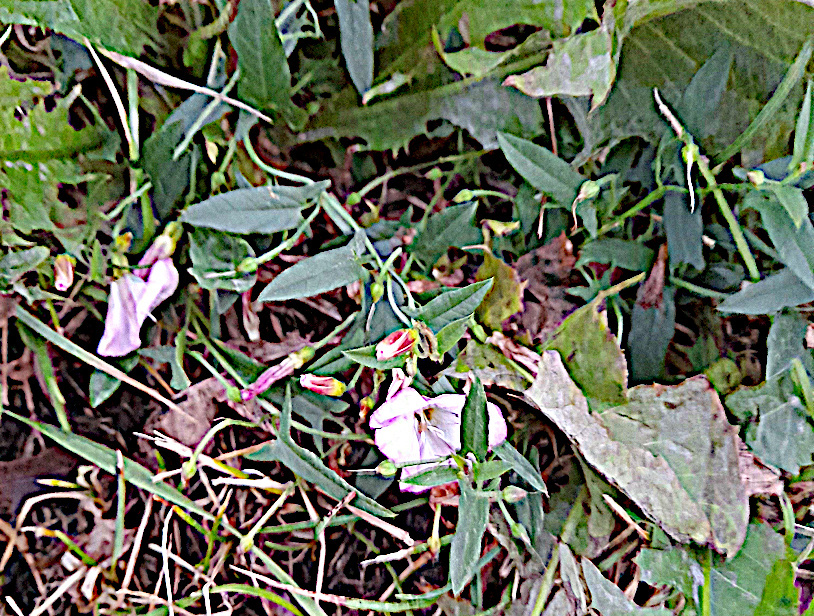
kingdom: Plantae
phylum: Tracheophyta
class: Magnoliopsida
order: Solanales
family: Convolvulaceae
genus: Convolvulus
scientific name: Convolvulus arvensis
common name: Field bindweed
